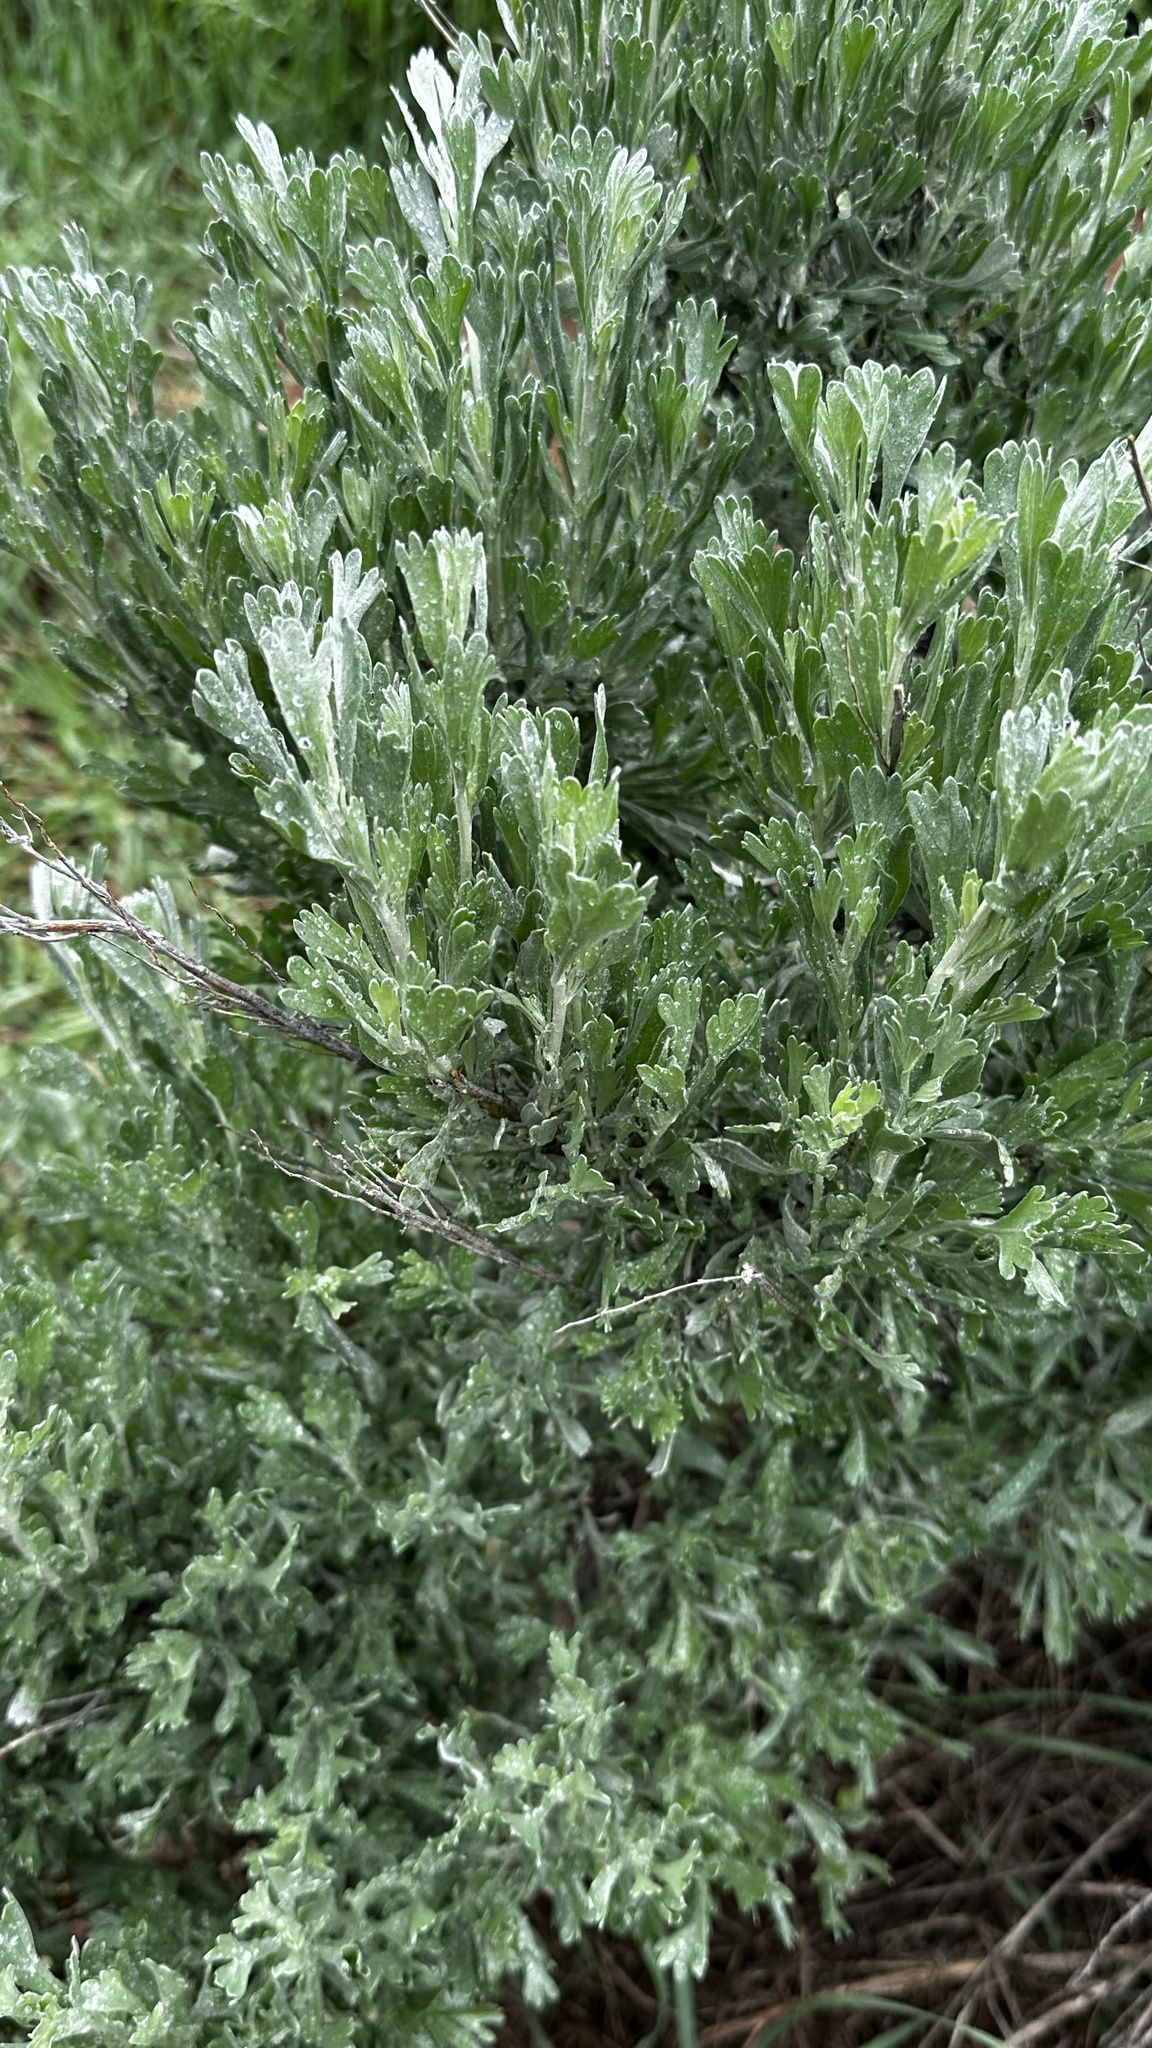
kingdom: Plantae
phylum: Tracheophyta
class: Magnoliopsida
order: Asterales
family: Asteraceae
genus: Artemisia
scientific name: Artemisia tridentata
